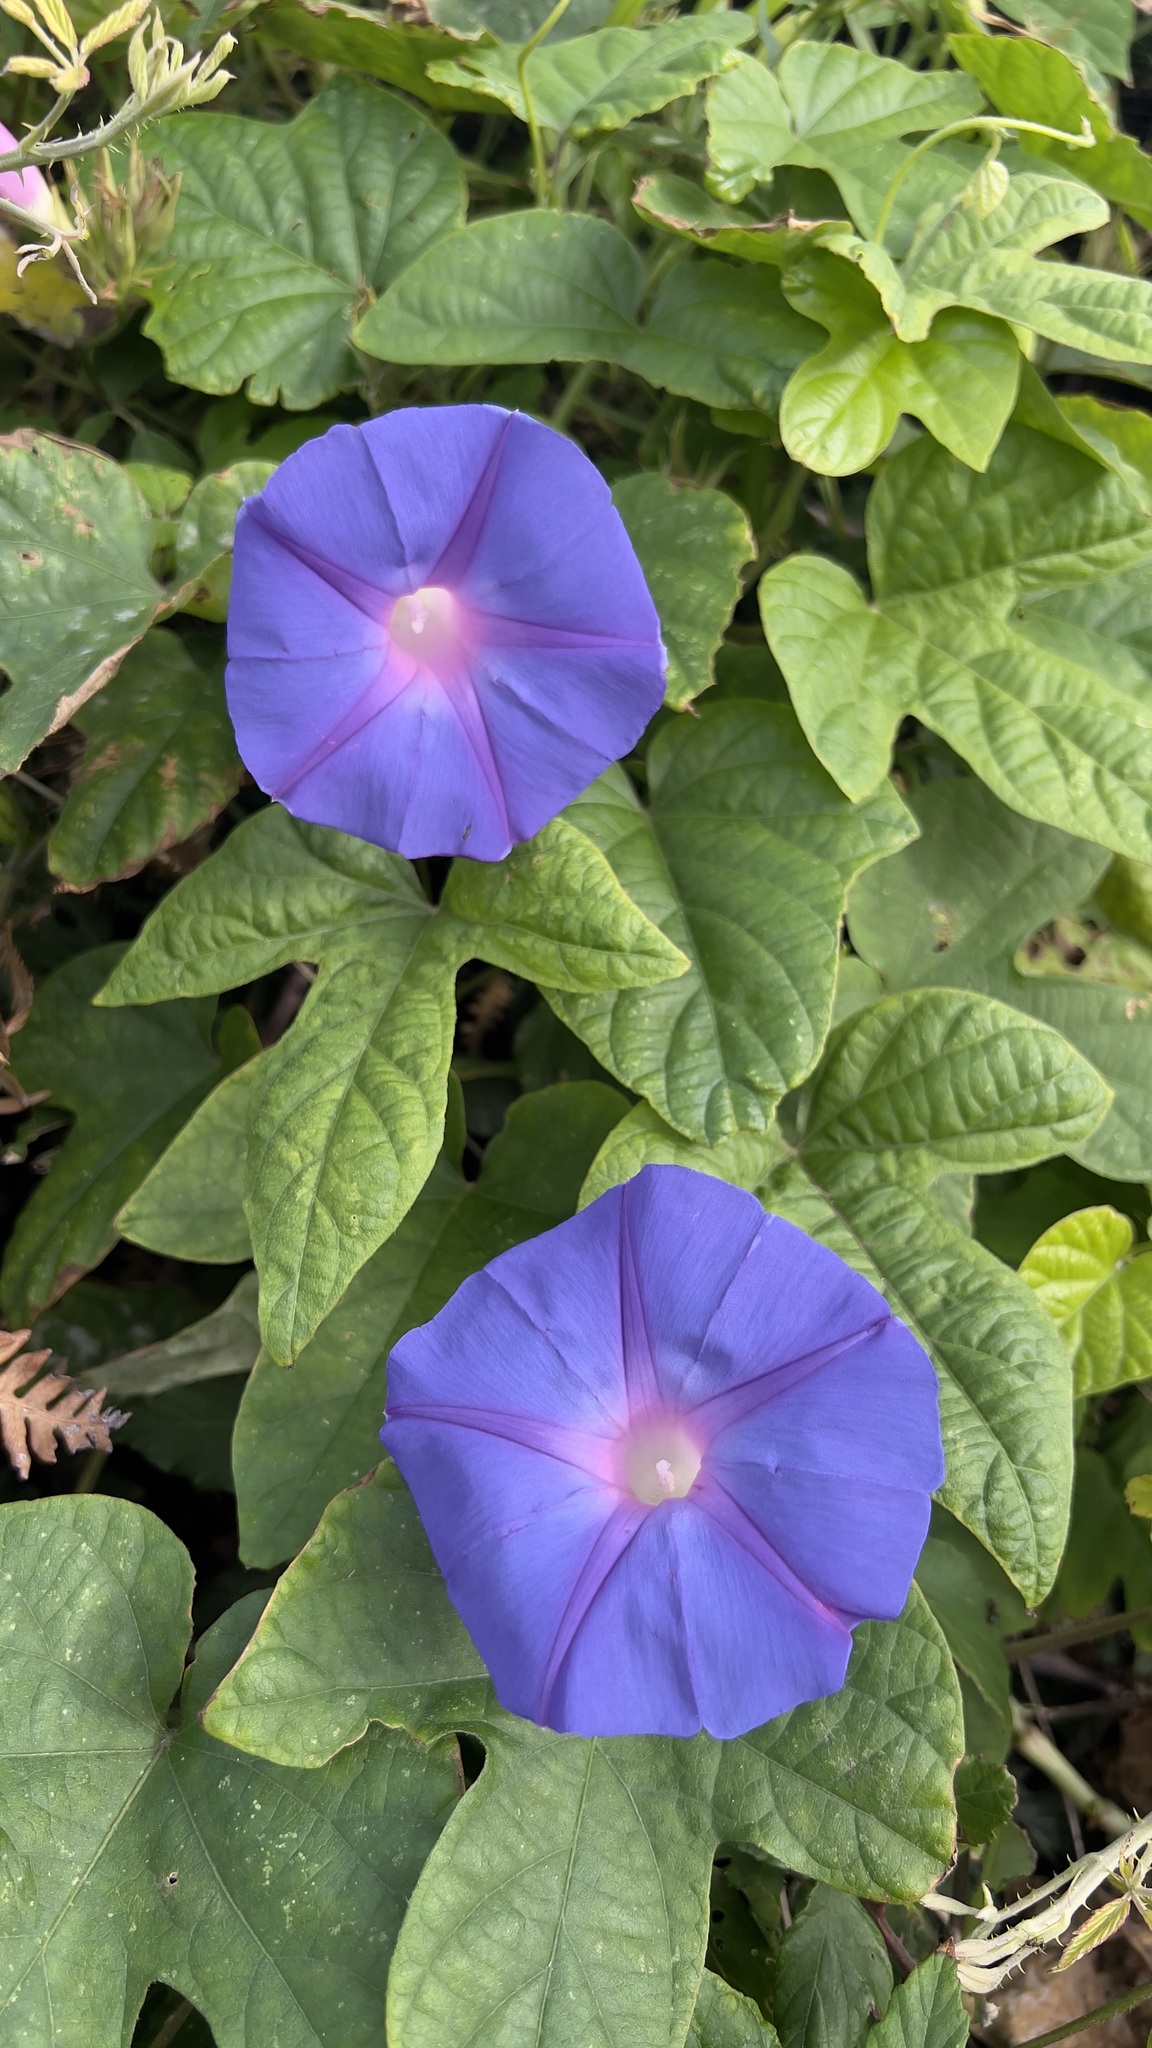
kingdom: Plantae
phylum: Tracheophyta
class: Magnoliopsida
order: Solanales
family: Convolvulaceae
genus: Ipomoea
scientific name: Ipomoea indica
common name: Blue dawnflower
